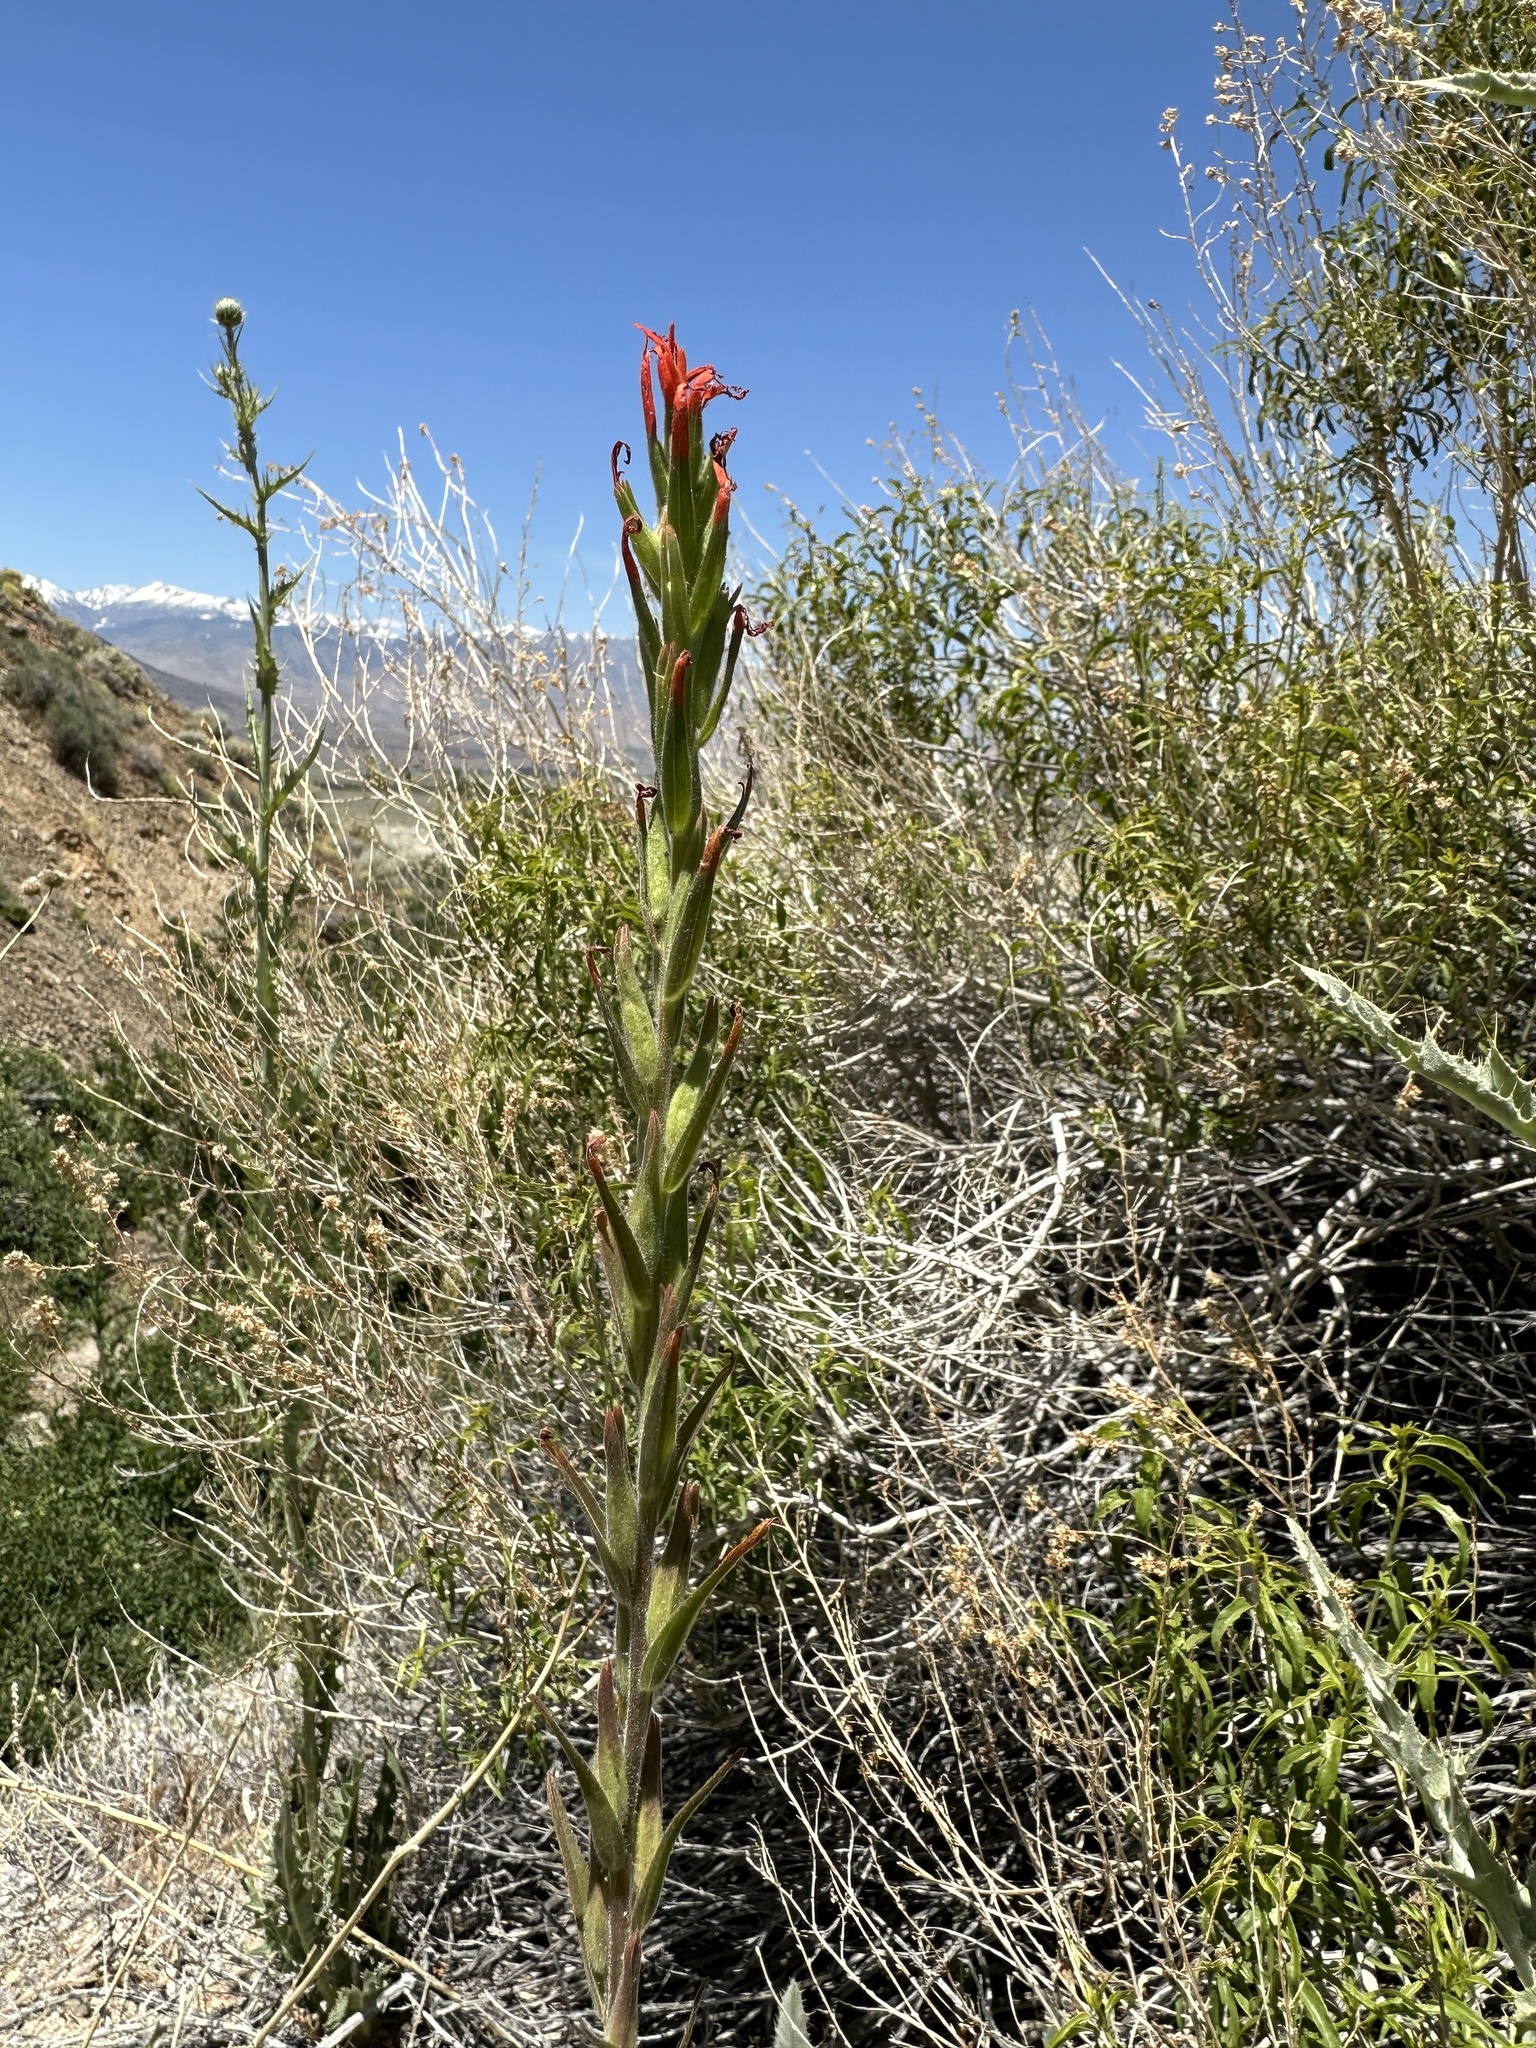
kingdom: Plantae
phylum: Tracheophyta
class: Magnoliopsida
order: Lamiales
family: Orobanchaceae
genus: Castilleja
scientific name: Castilleja minor
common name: Seep paintbrush
